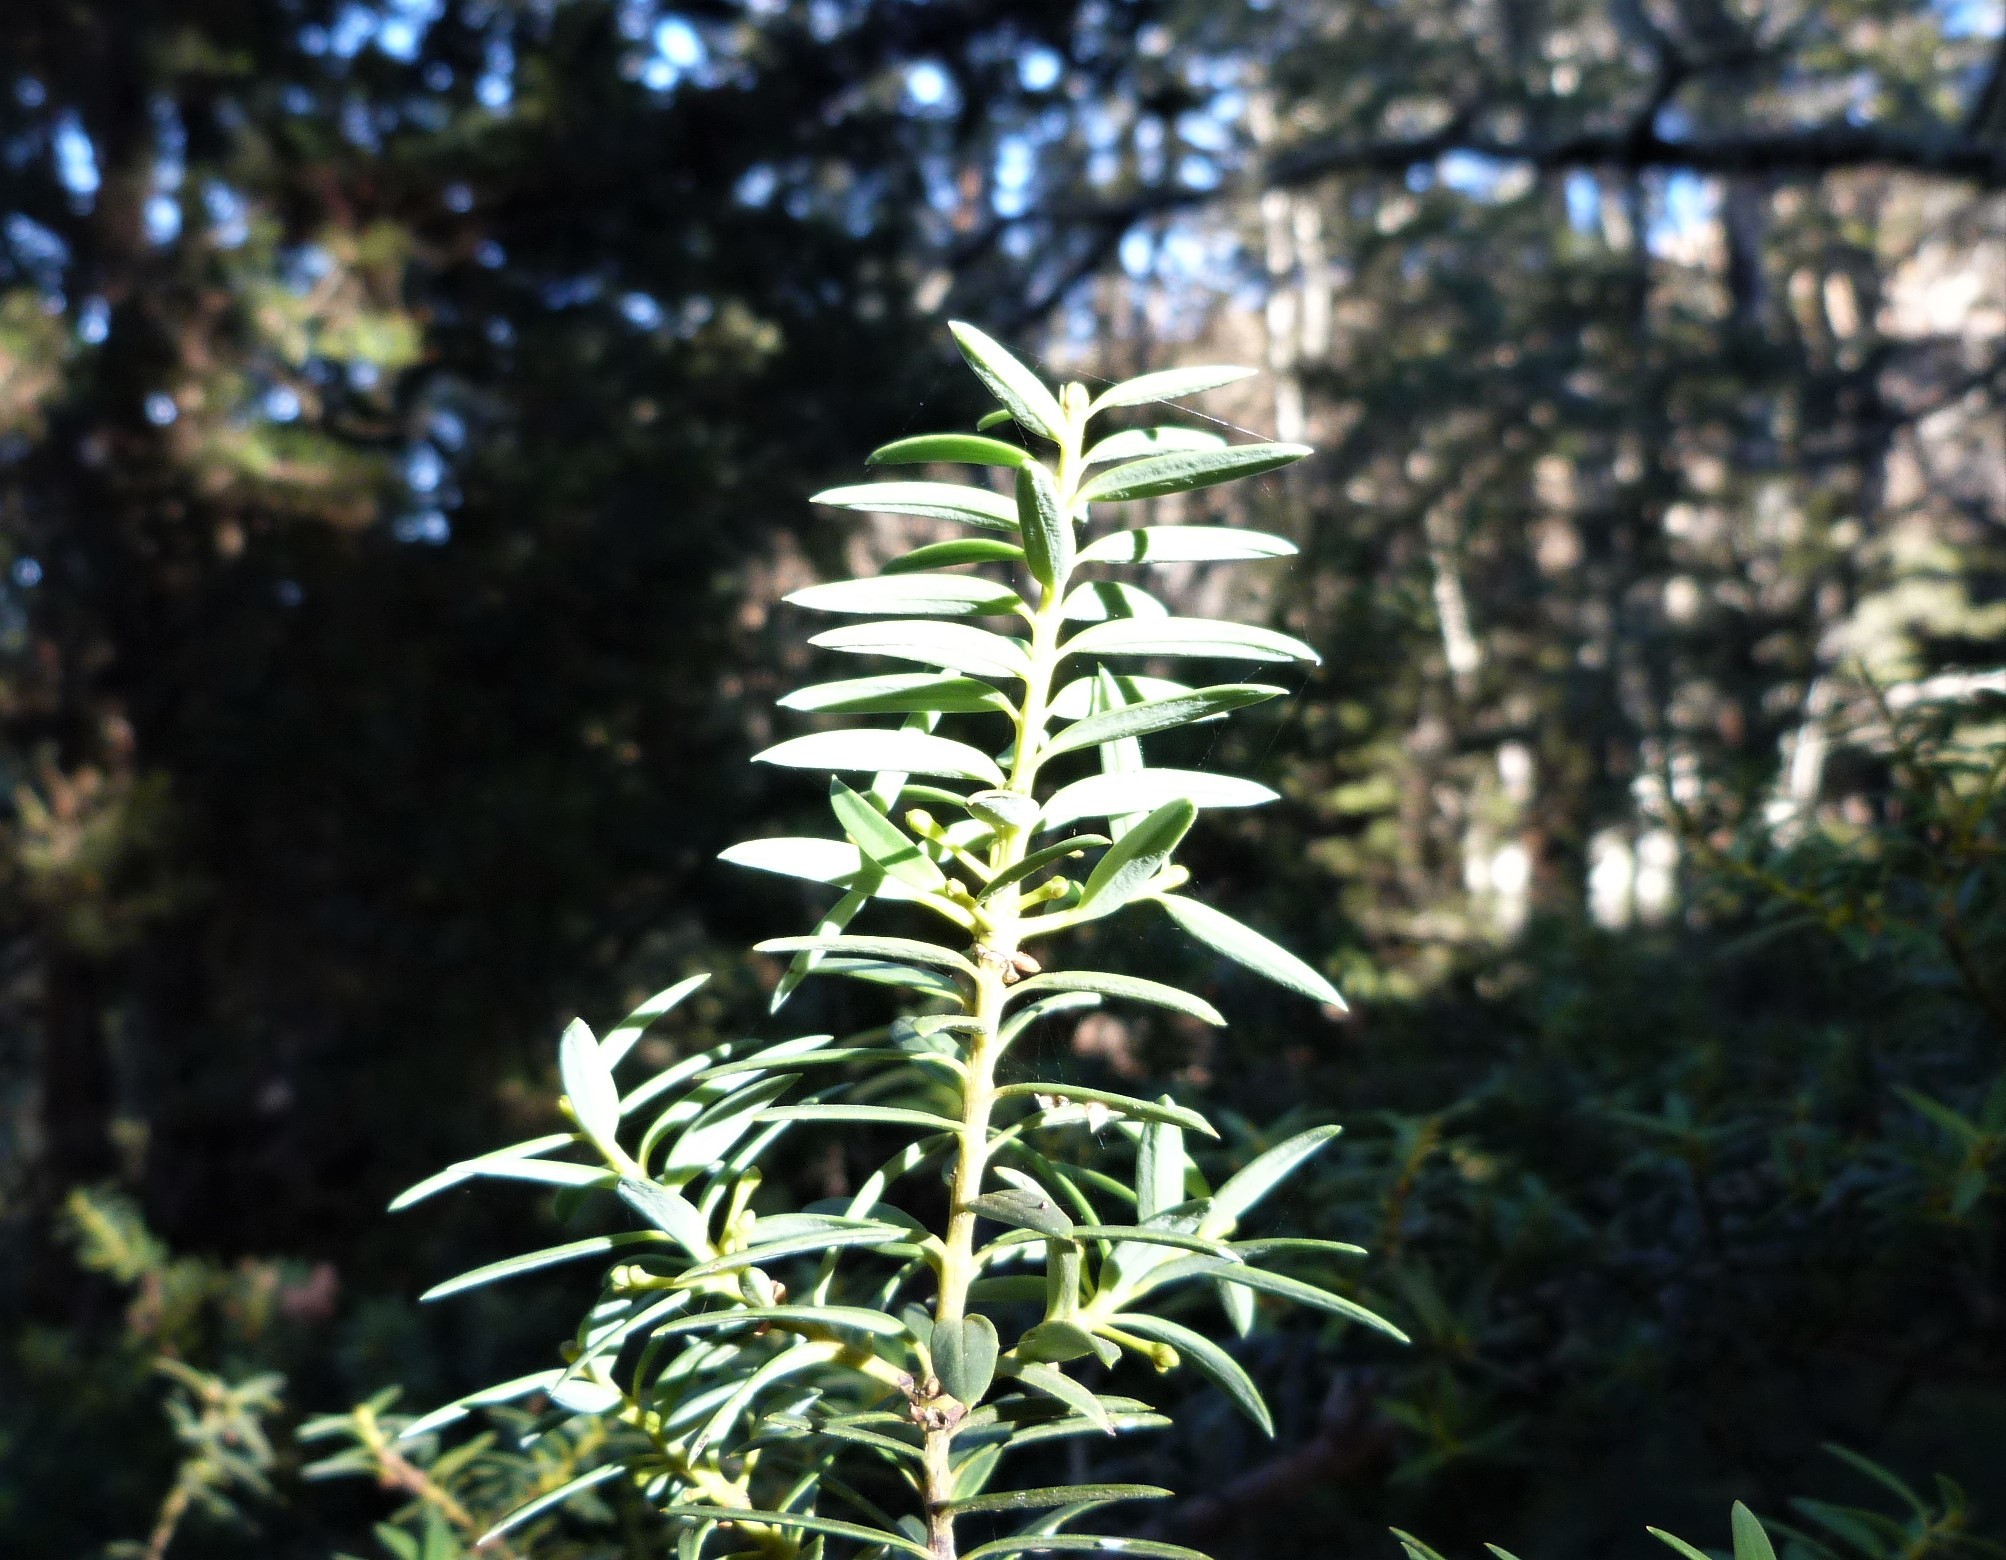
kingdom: Plantae
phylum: Tracheophyta
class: Pinopsida
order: Pinales
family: Podocarpaceae
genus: Podocarpus
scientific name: Podocarpus laetus
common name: Hall's totara
